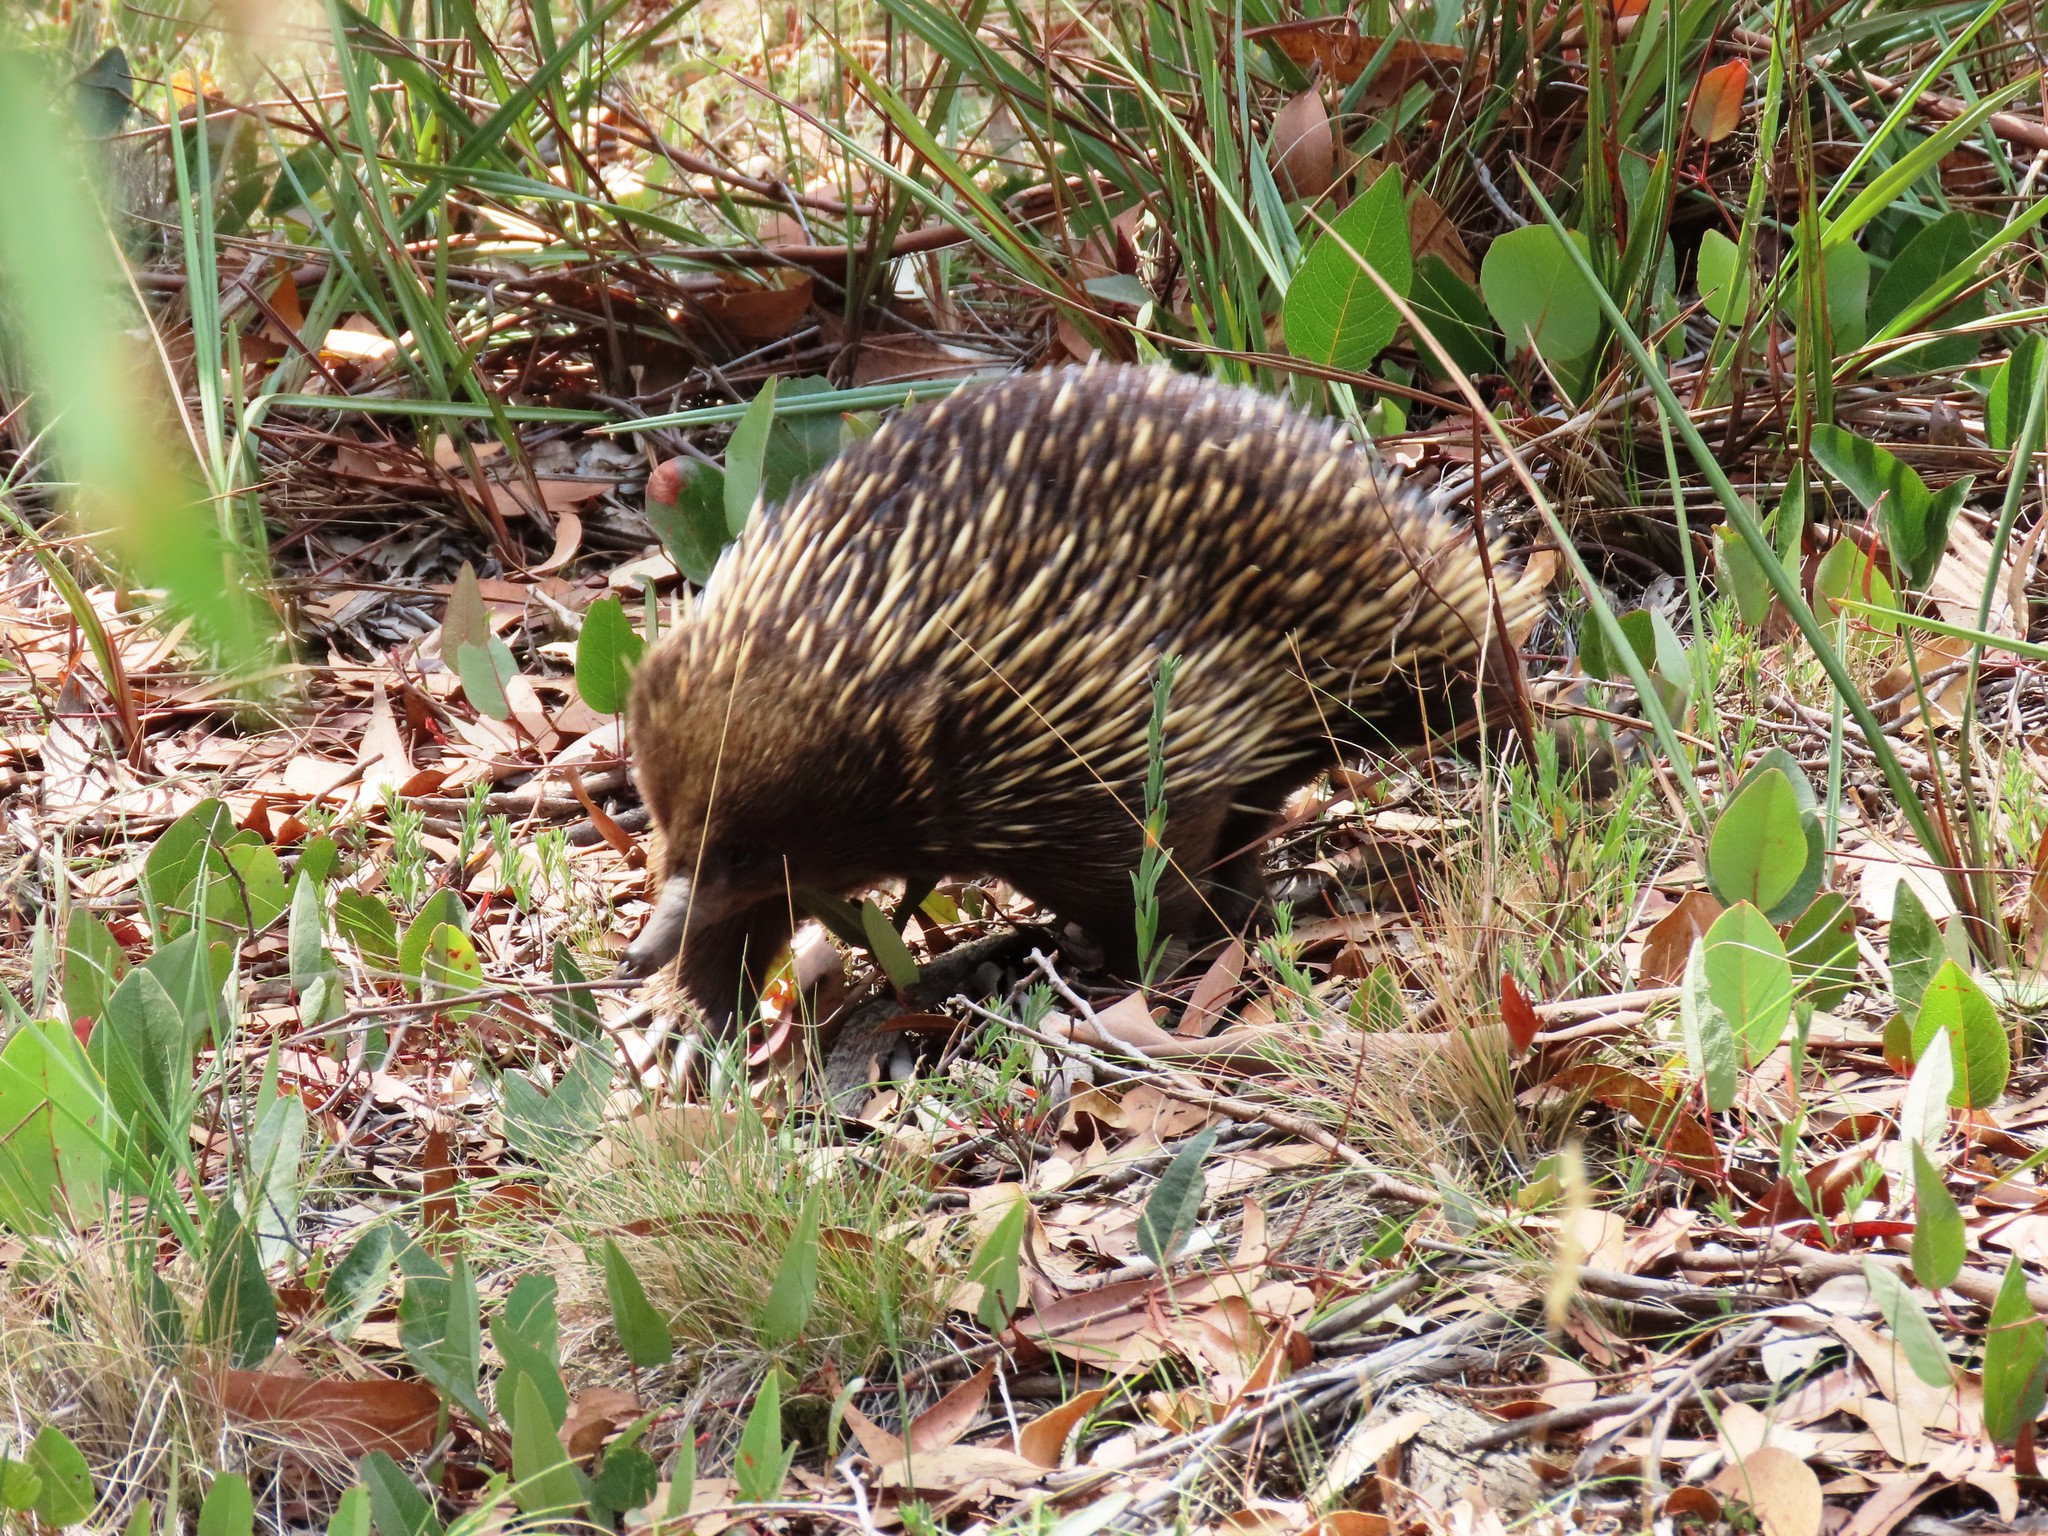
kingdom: Animalia
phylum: Chordata
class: Mammalia
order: Monotremata
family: Tachyglossidae
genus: Tachyglossus
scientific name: Tachyglossus aculeatus
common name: Short-beaked echidna
